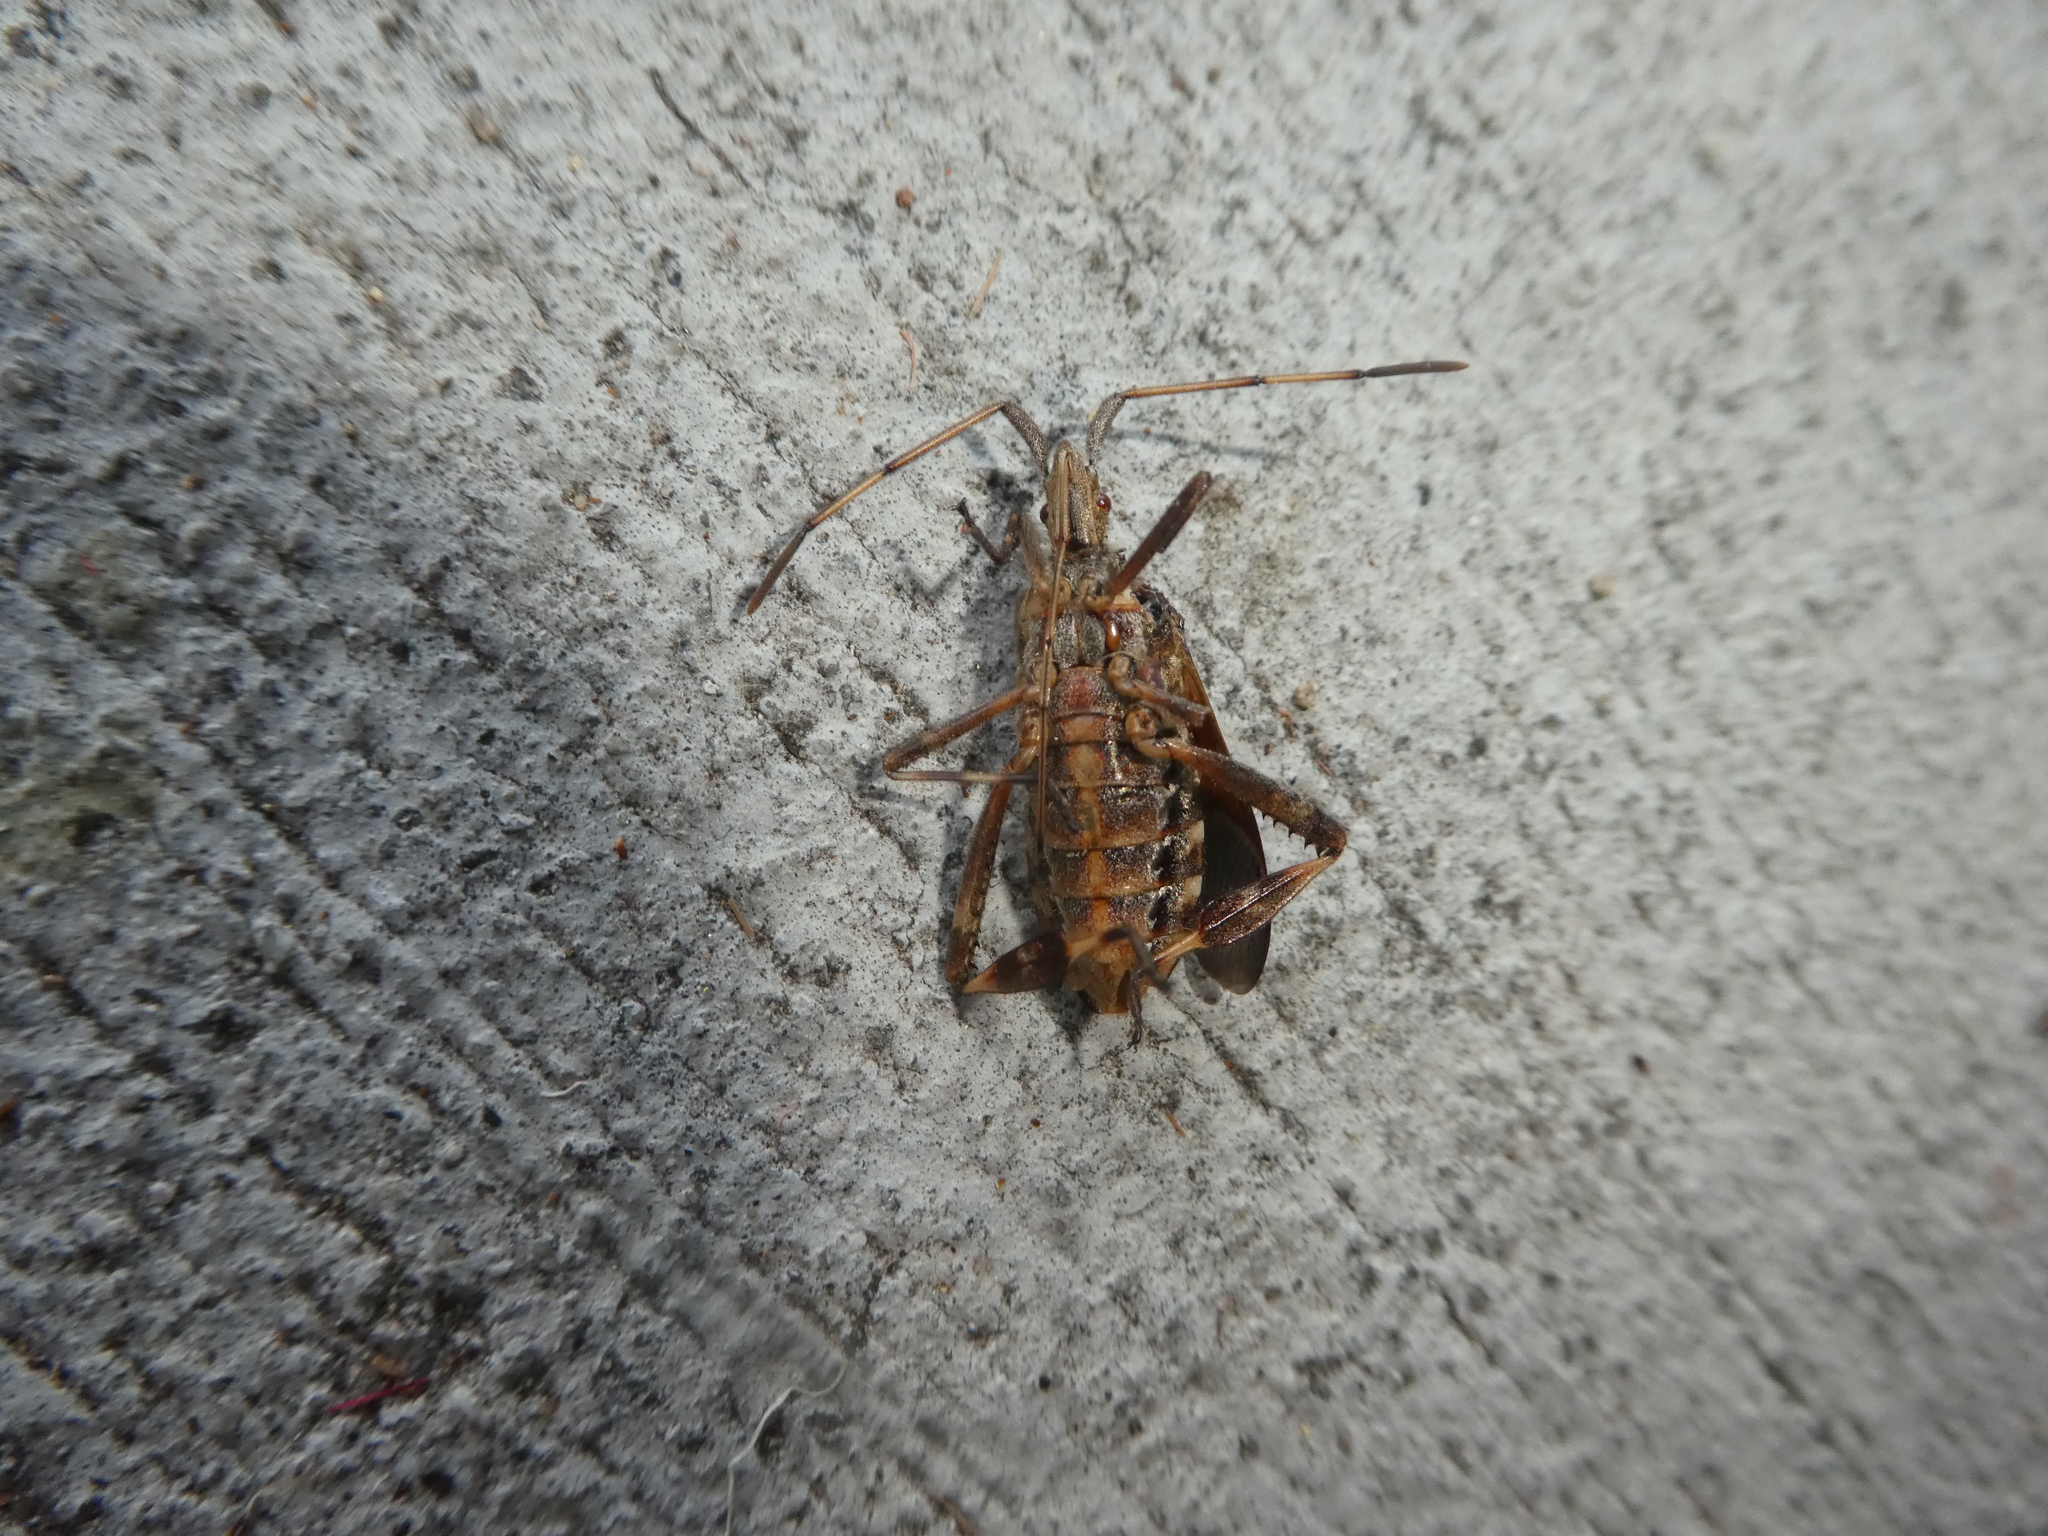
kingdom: Animalia
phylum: Arthropoda
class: Insecta
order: Hemiptera
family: Coreidae
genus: Leptoglossus
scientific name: Leptoglossus occidentalis
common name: Western conifer-seed bug
